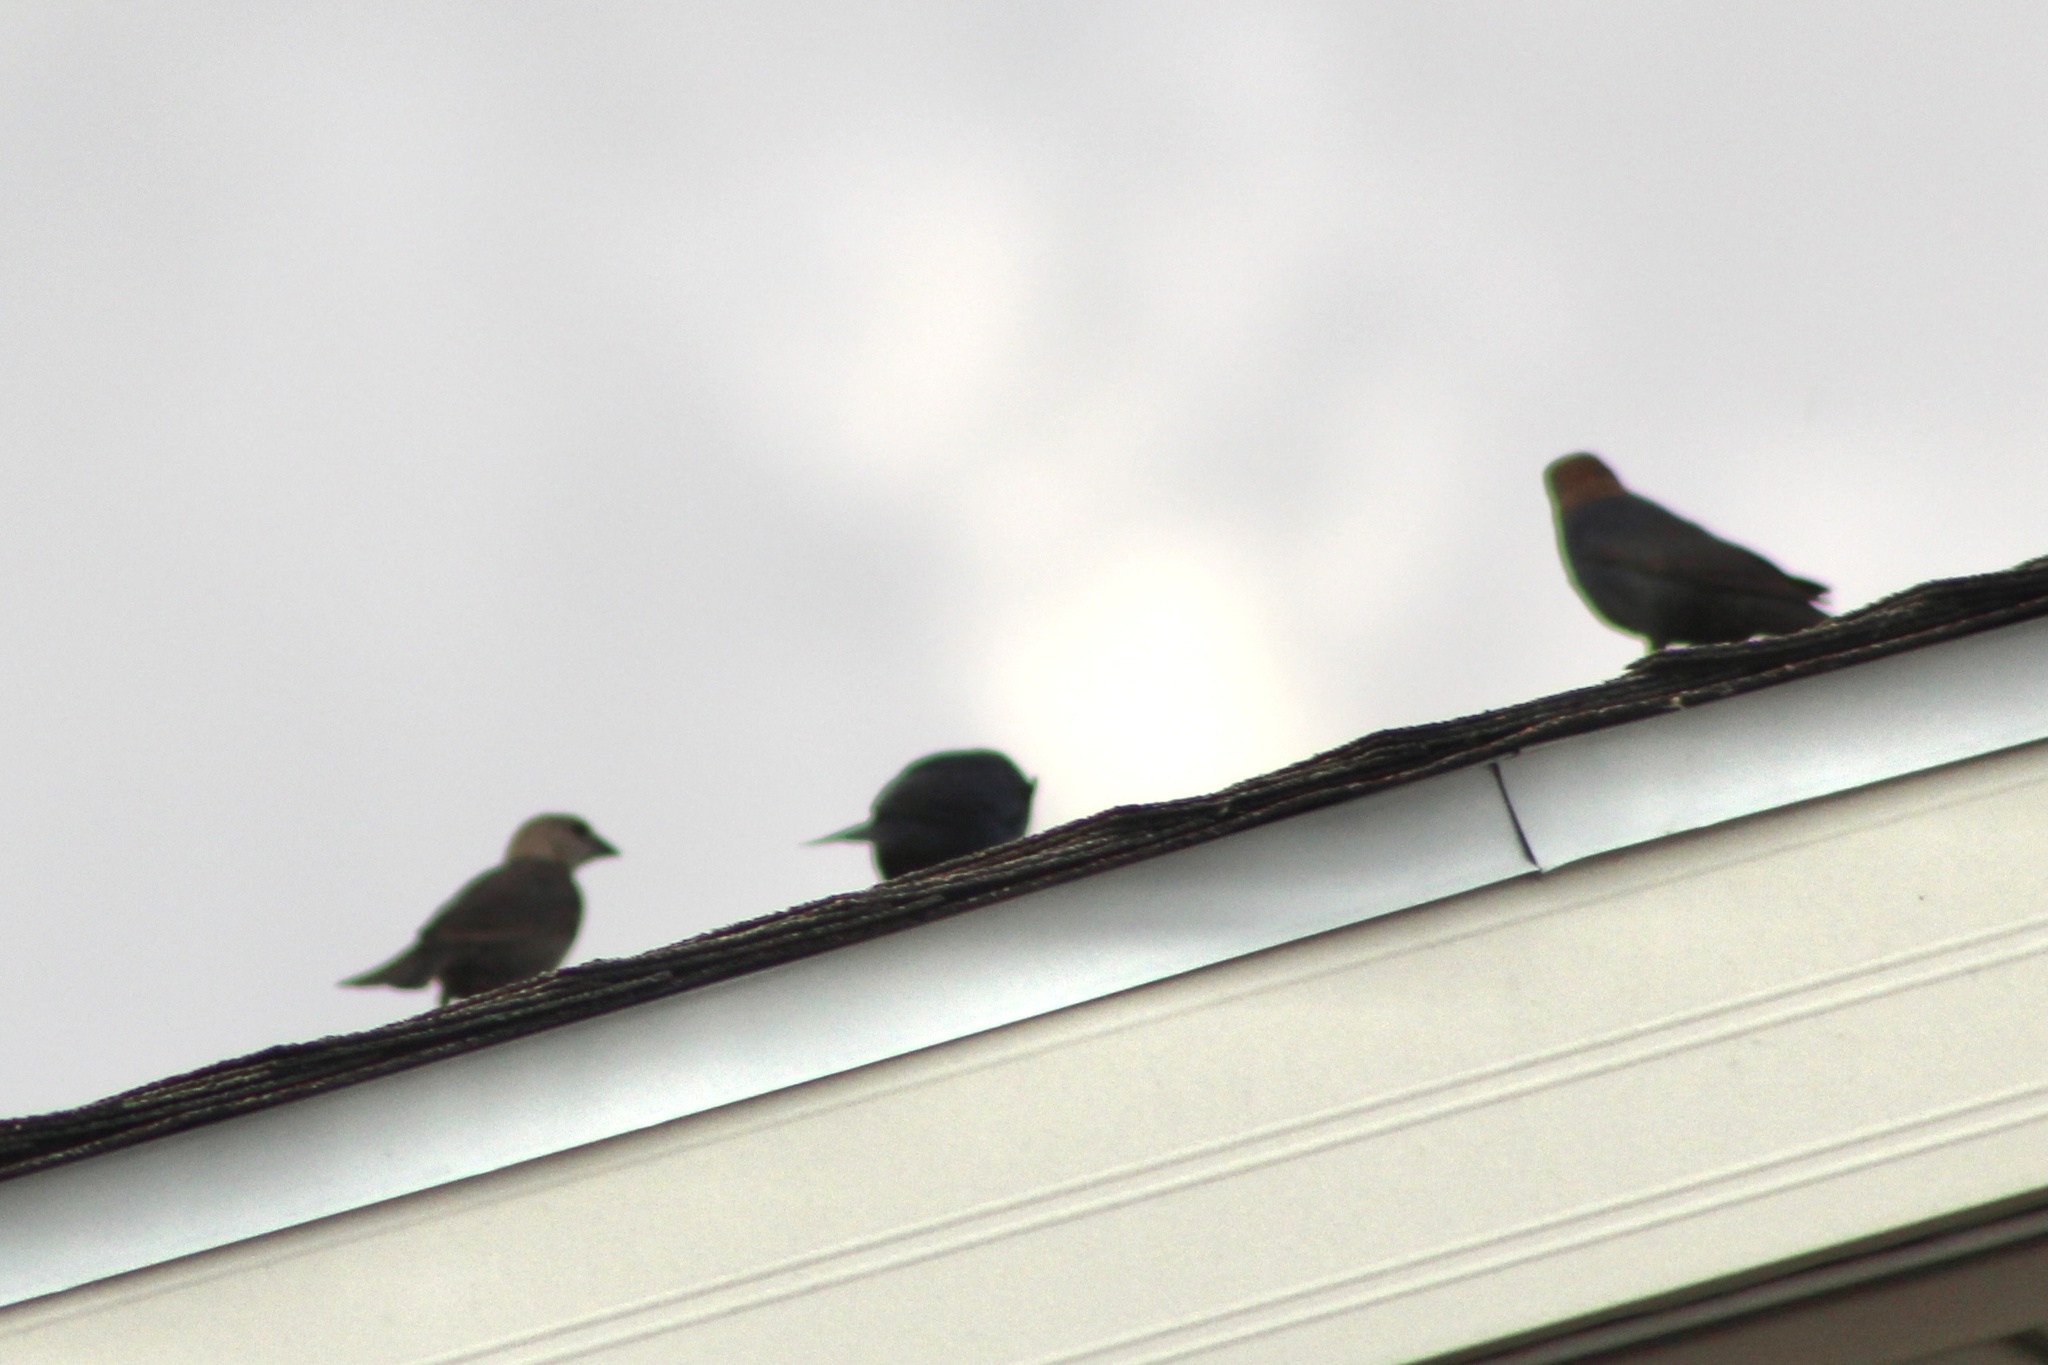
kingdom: Animalia
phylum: Chordata
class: Aves
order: Passeriformes
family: Icteridae
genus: Molothrus
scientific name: Molothrus ater
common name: Brown-headed cowbird
